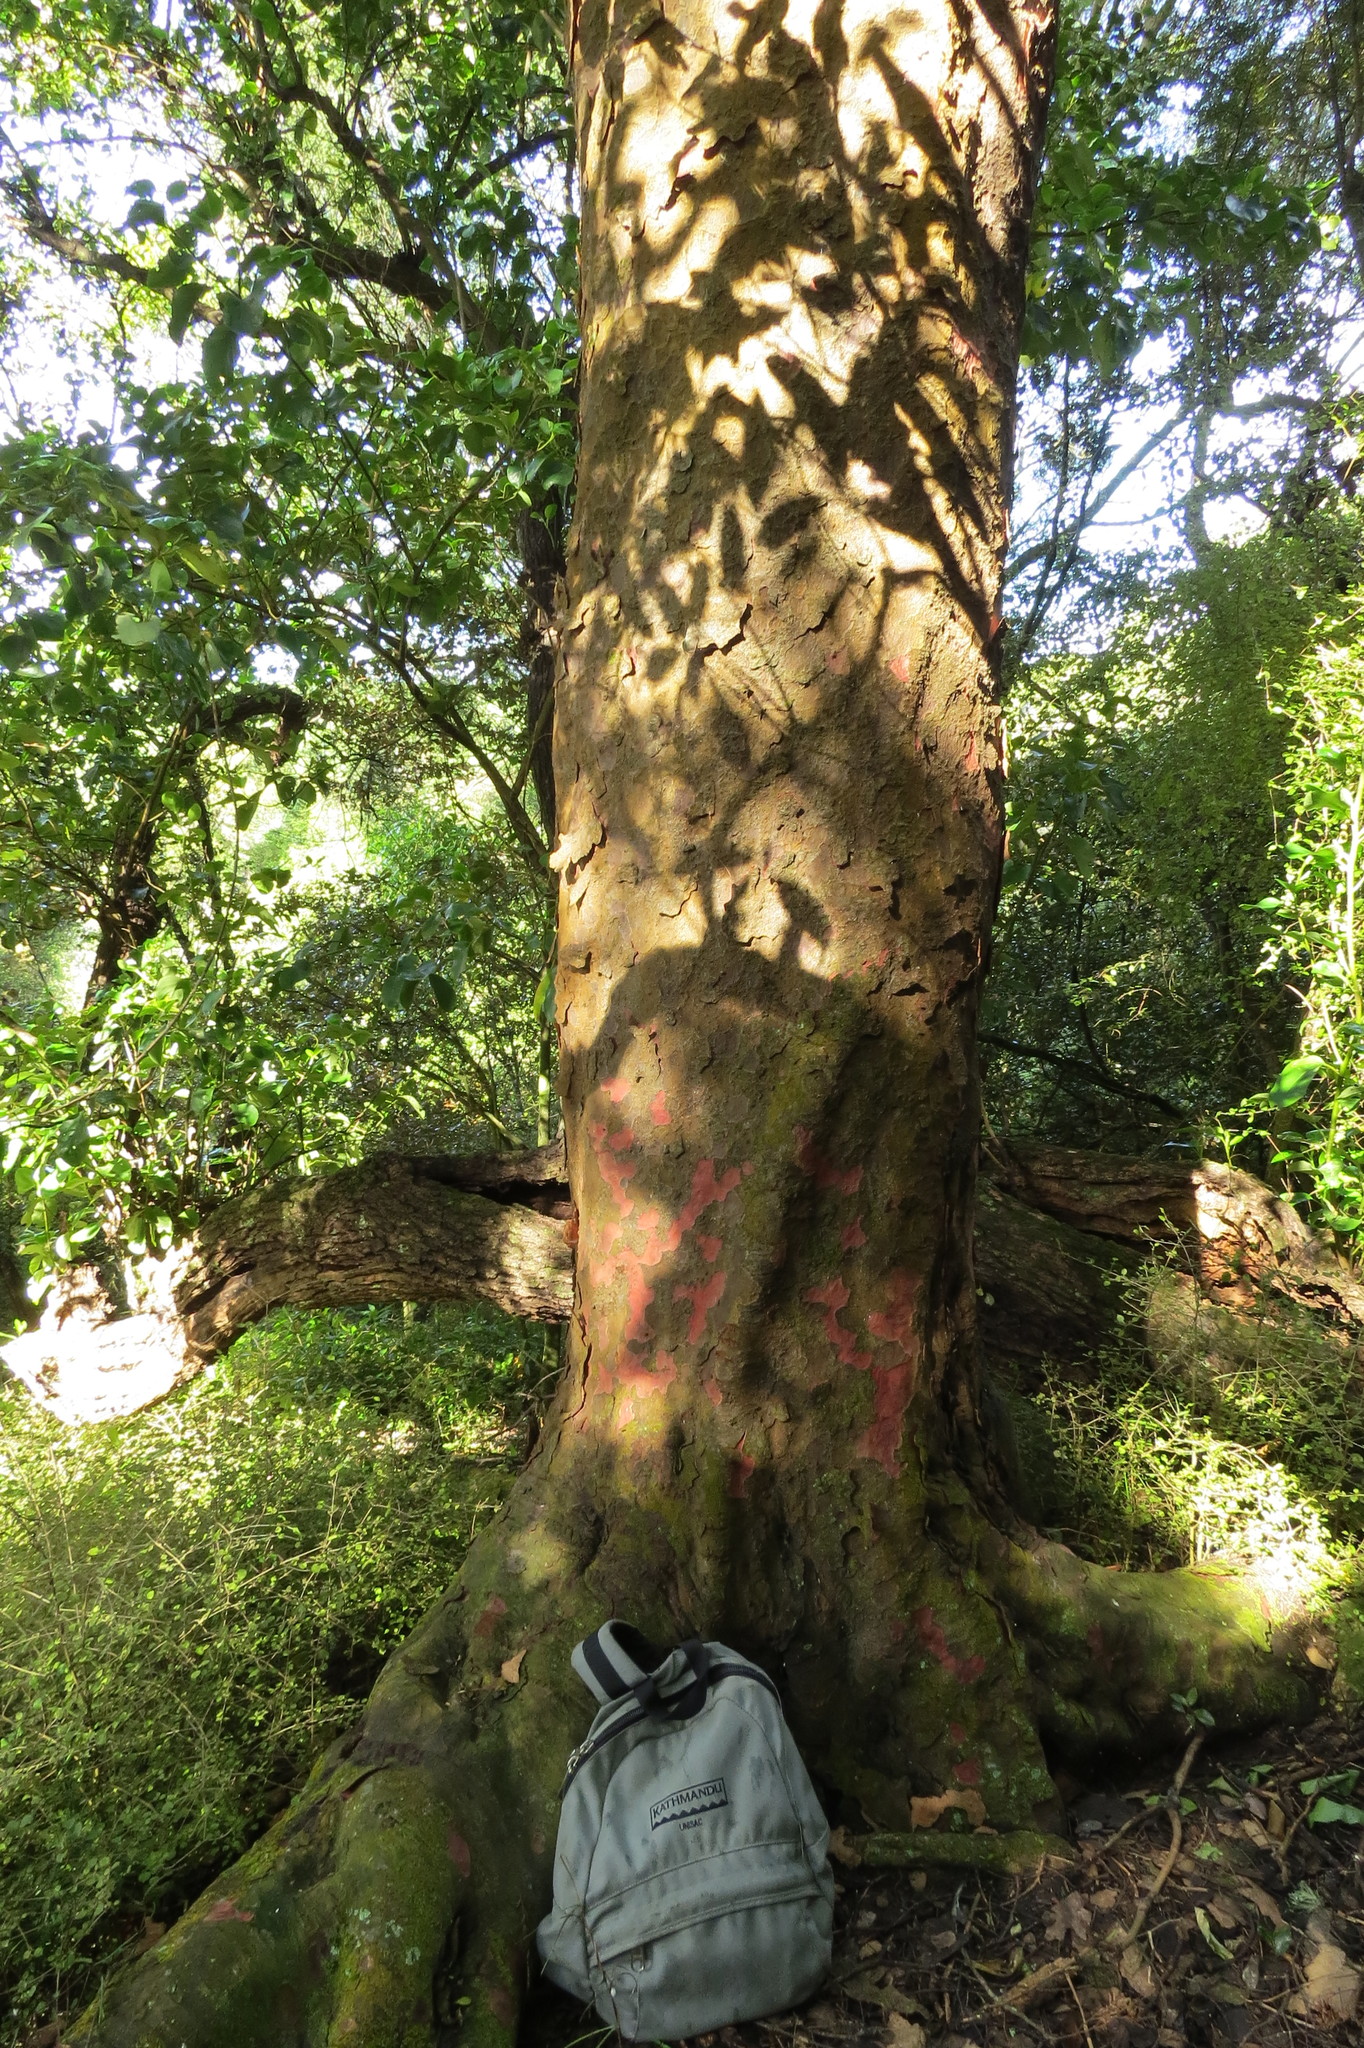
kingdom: Plantae
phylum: Tracheophyta
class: Pinopsida
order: Pinales
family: Podocarpaceae
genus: Prumnopitys
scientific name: Prumnopitys taxifolia
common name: Matai
